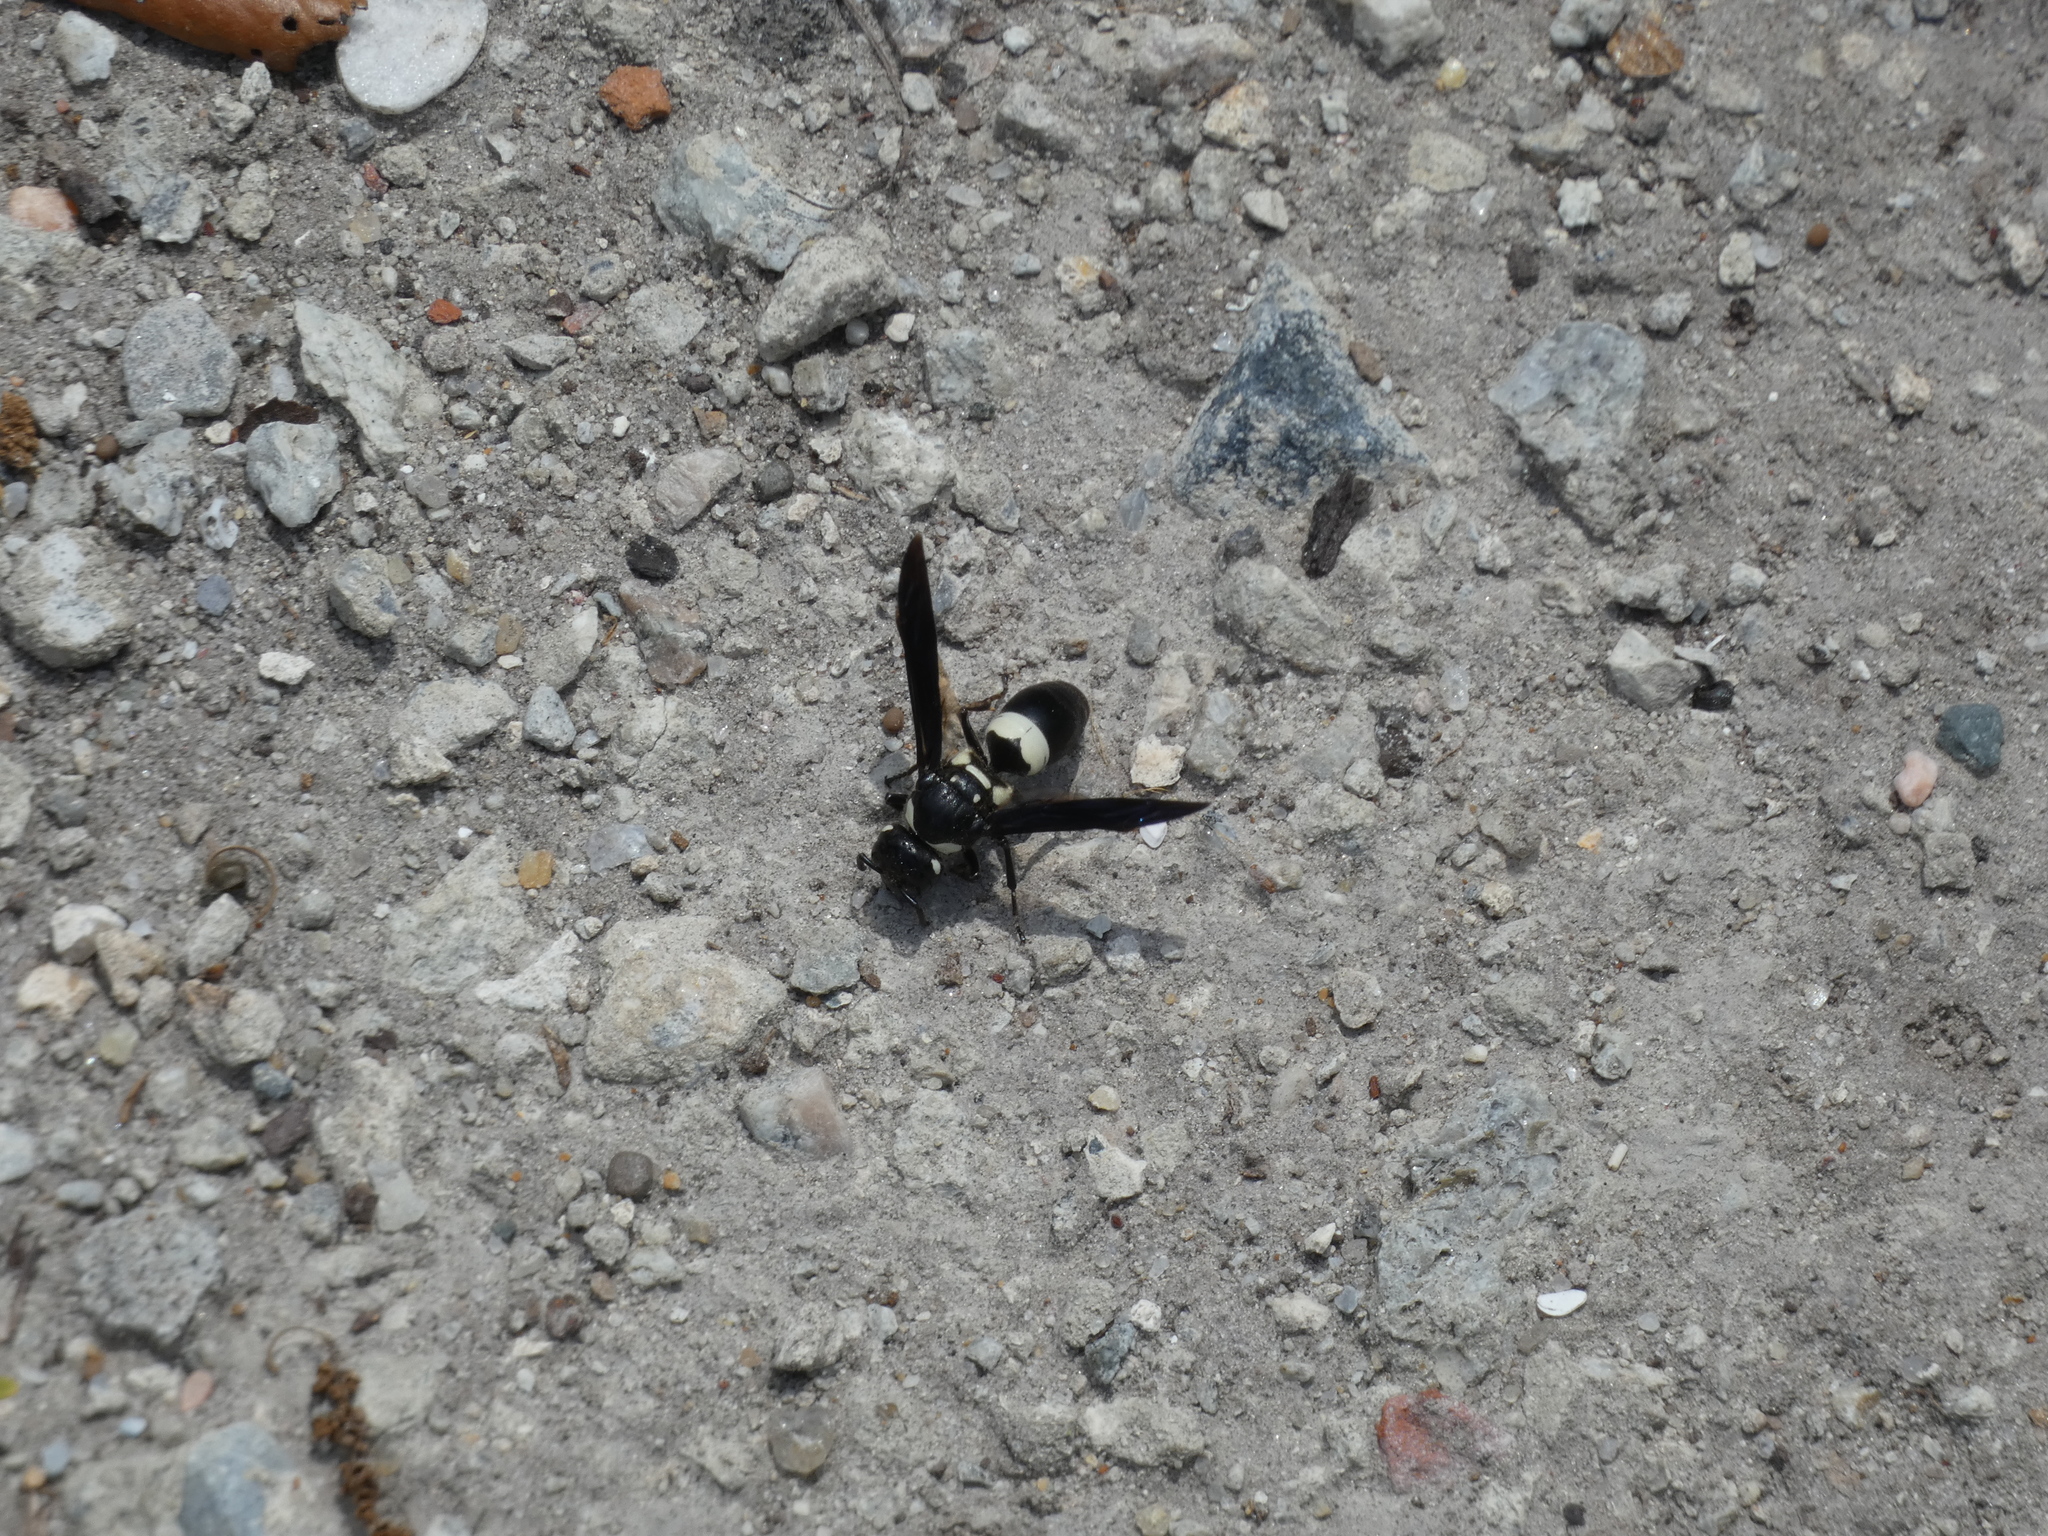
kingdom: Animalia
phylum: Arthropoda
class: Insecta
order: Hymenoptera
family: Eumenidae
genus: Euodynerus
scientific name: Euodynerus bidens
